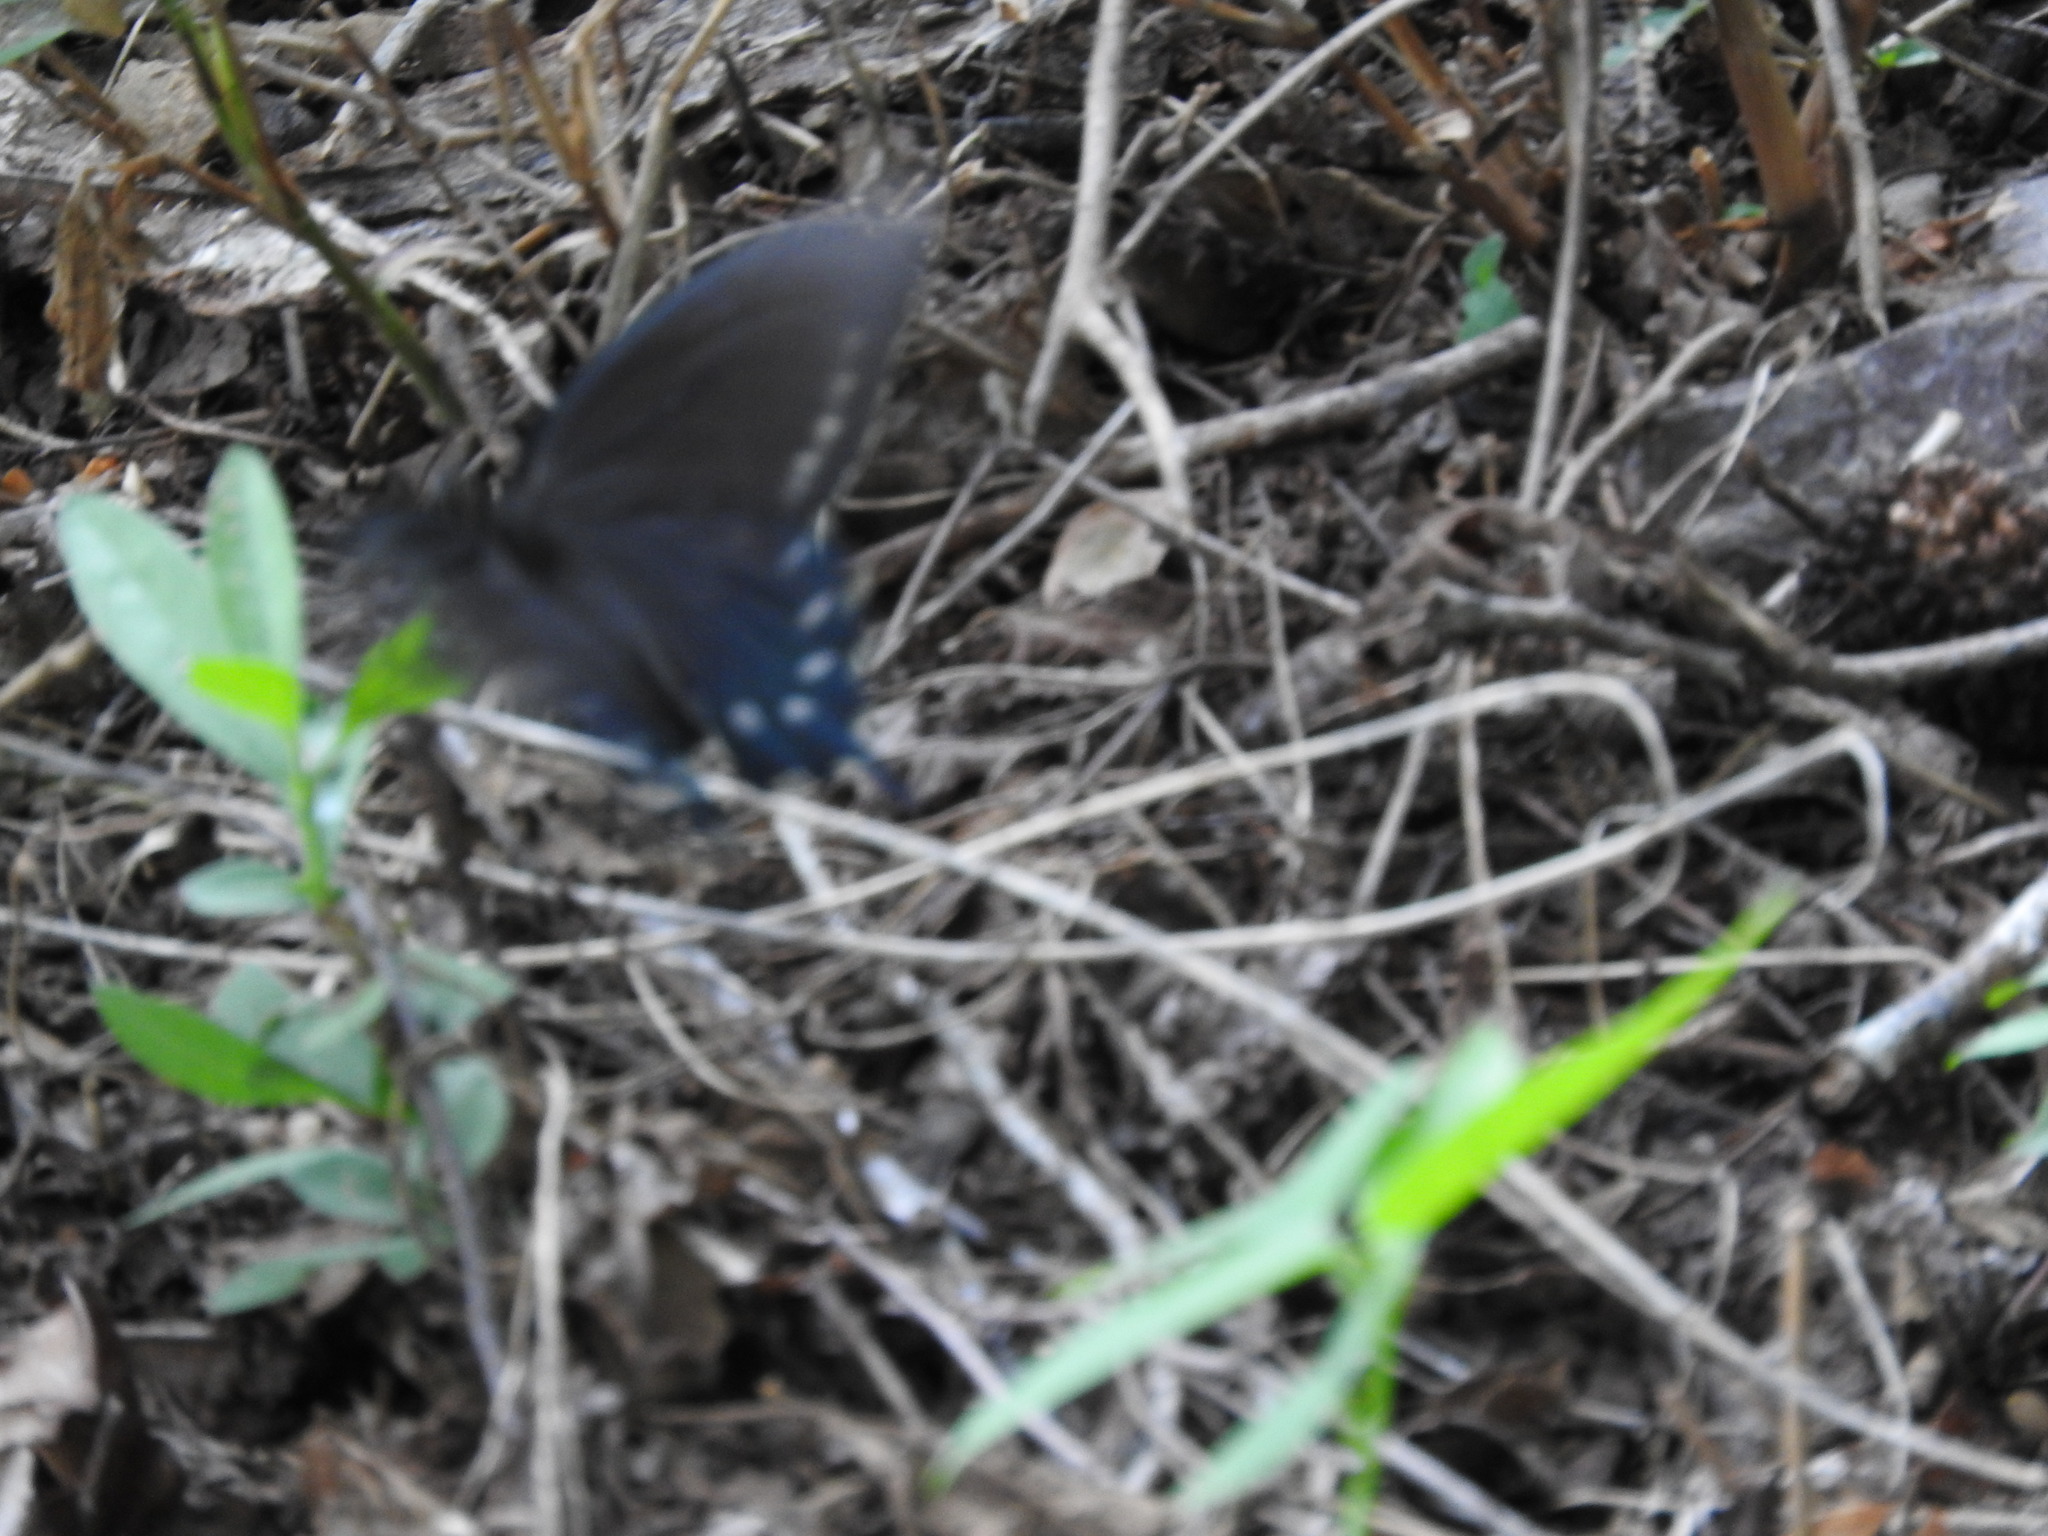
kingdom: Animalia
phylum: Arthropoda
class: Insecta
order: Lepidoptera
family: Papilionidae
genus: Battus
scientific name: Battus philenor
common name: Pipevine swallowtail
